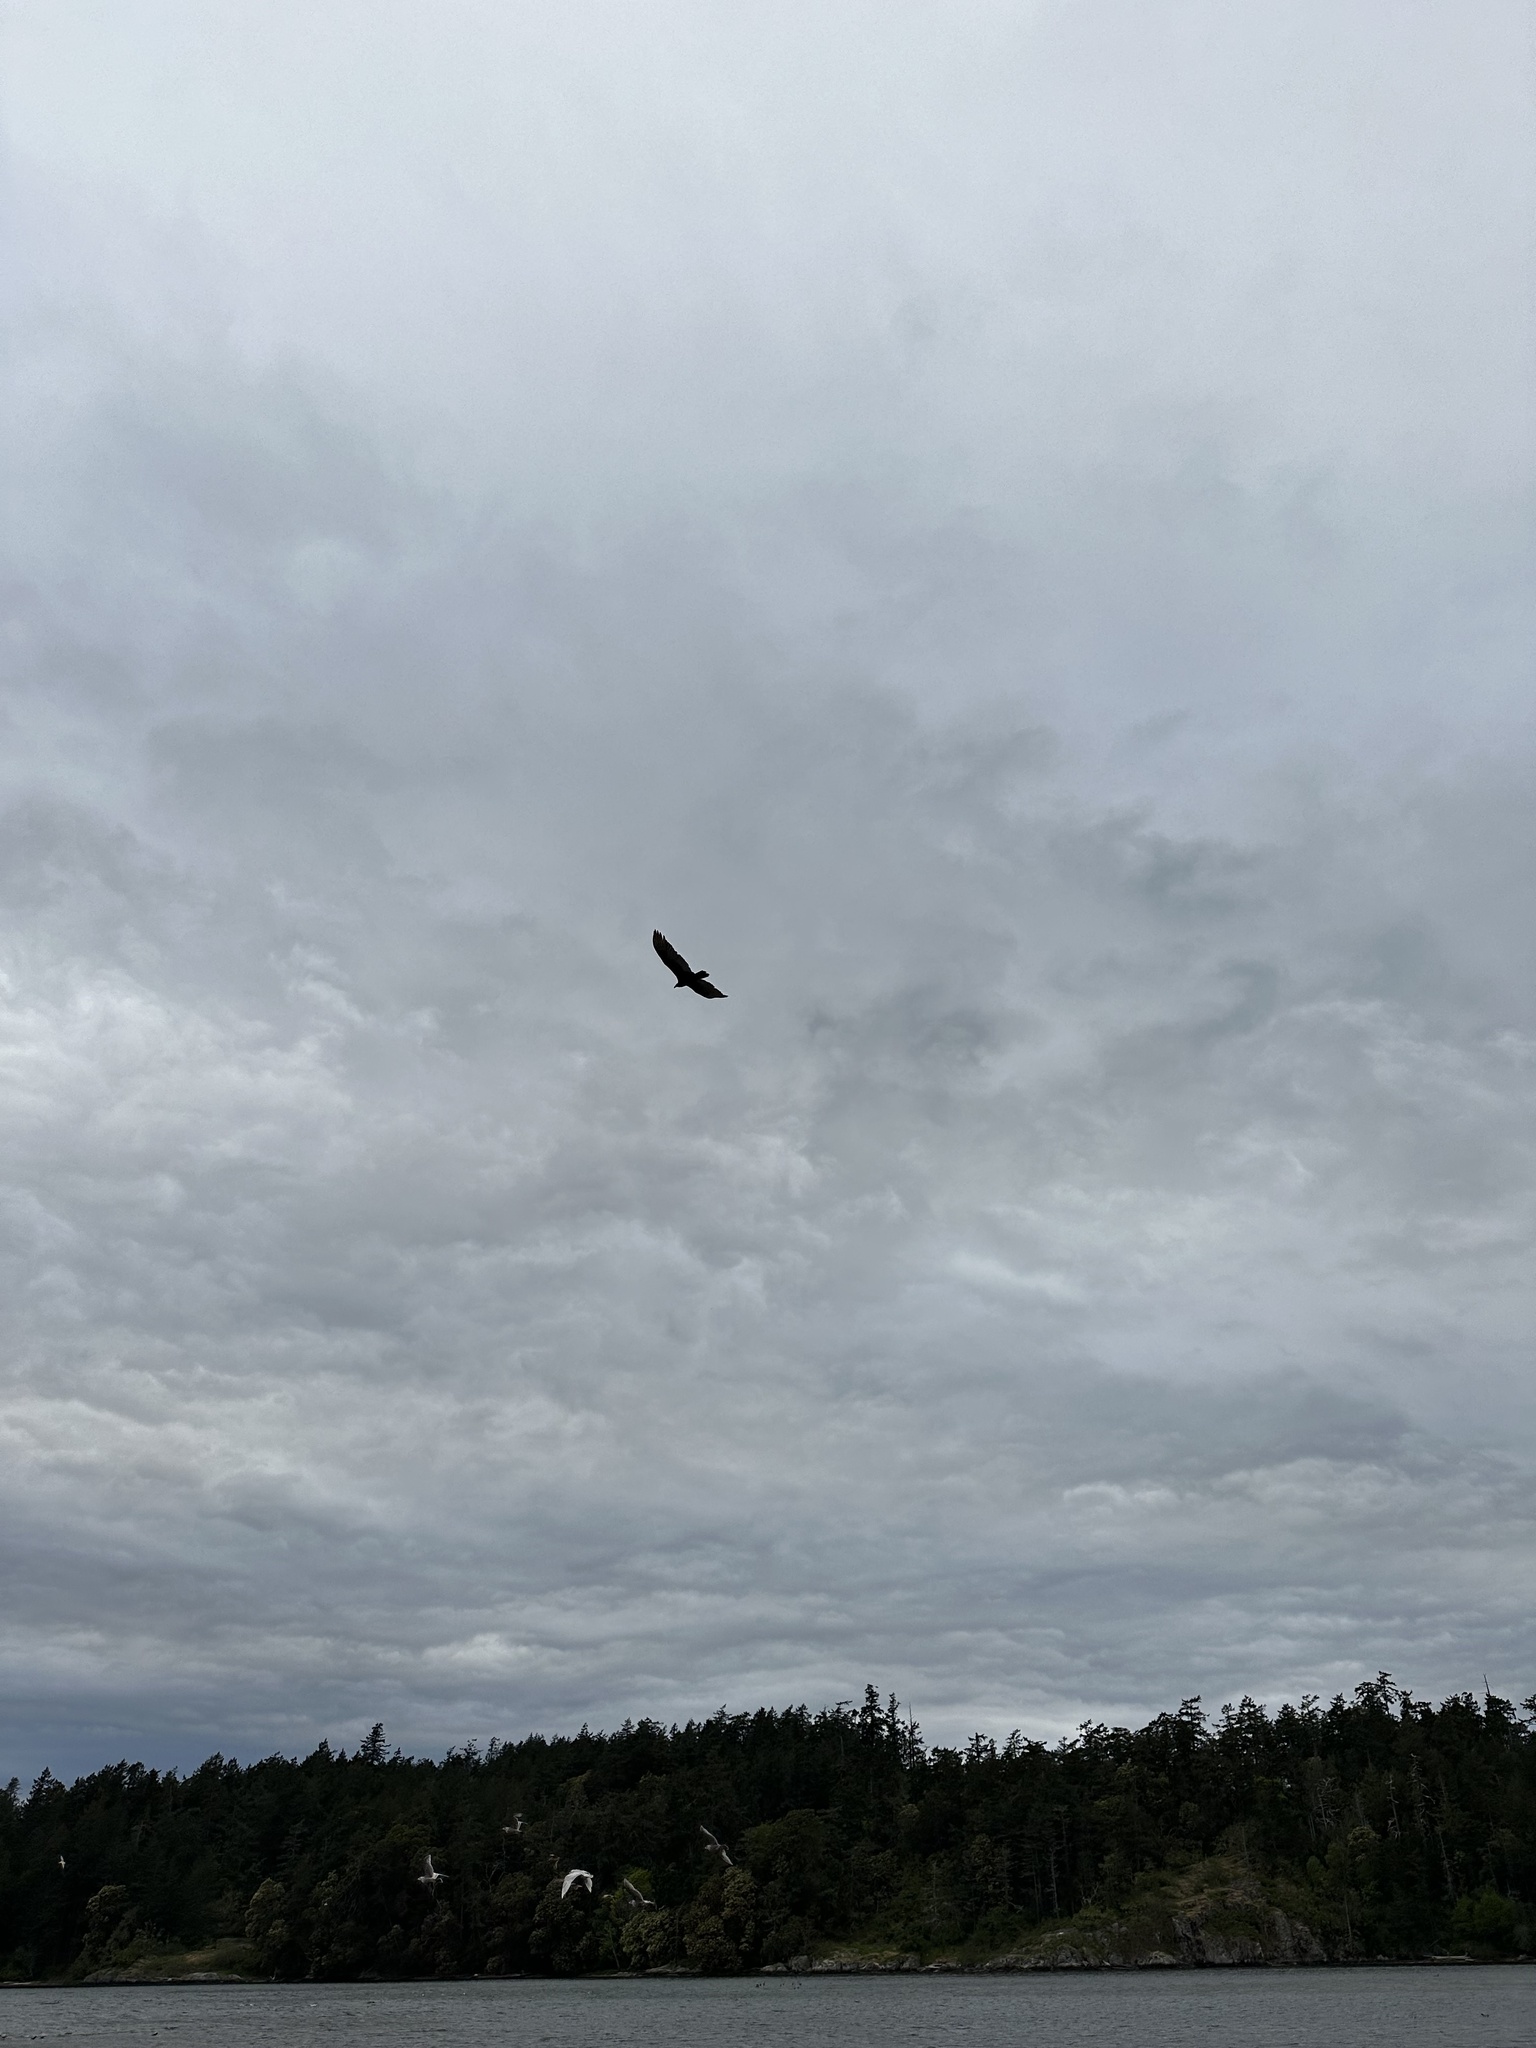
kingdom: Animalia
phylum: Chordata
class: Aves
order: Accipitriformes
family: Cathartidae
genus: Cathartes
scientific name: Cathartes aura
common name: Turkey vulture
